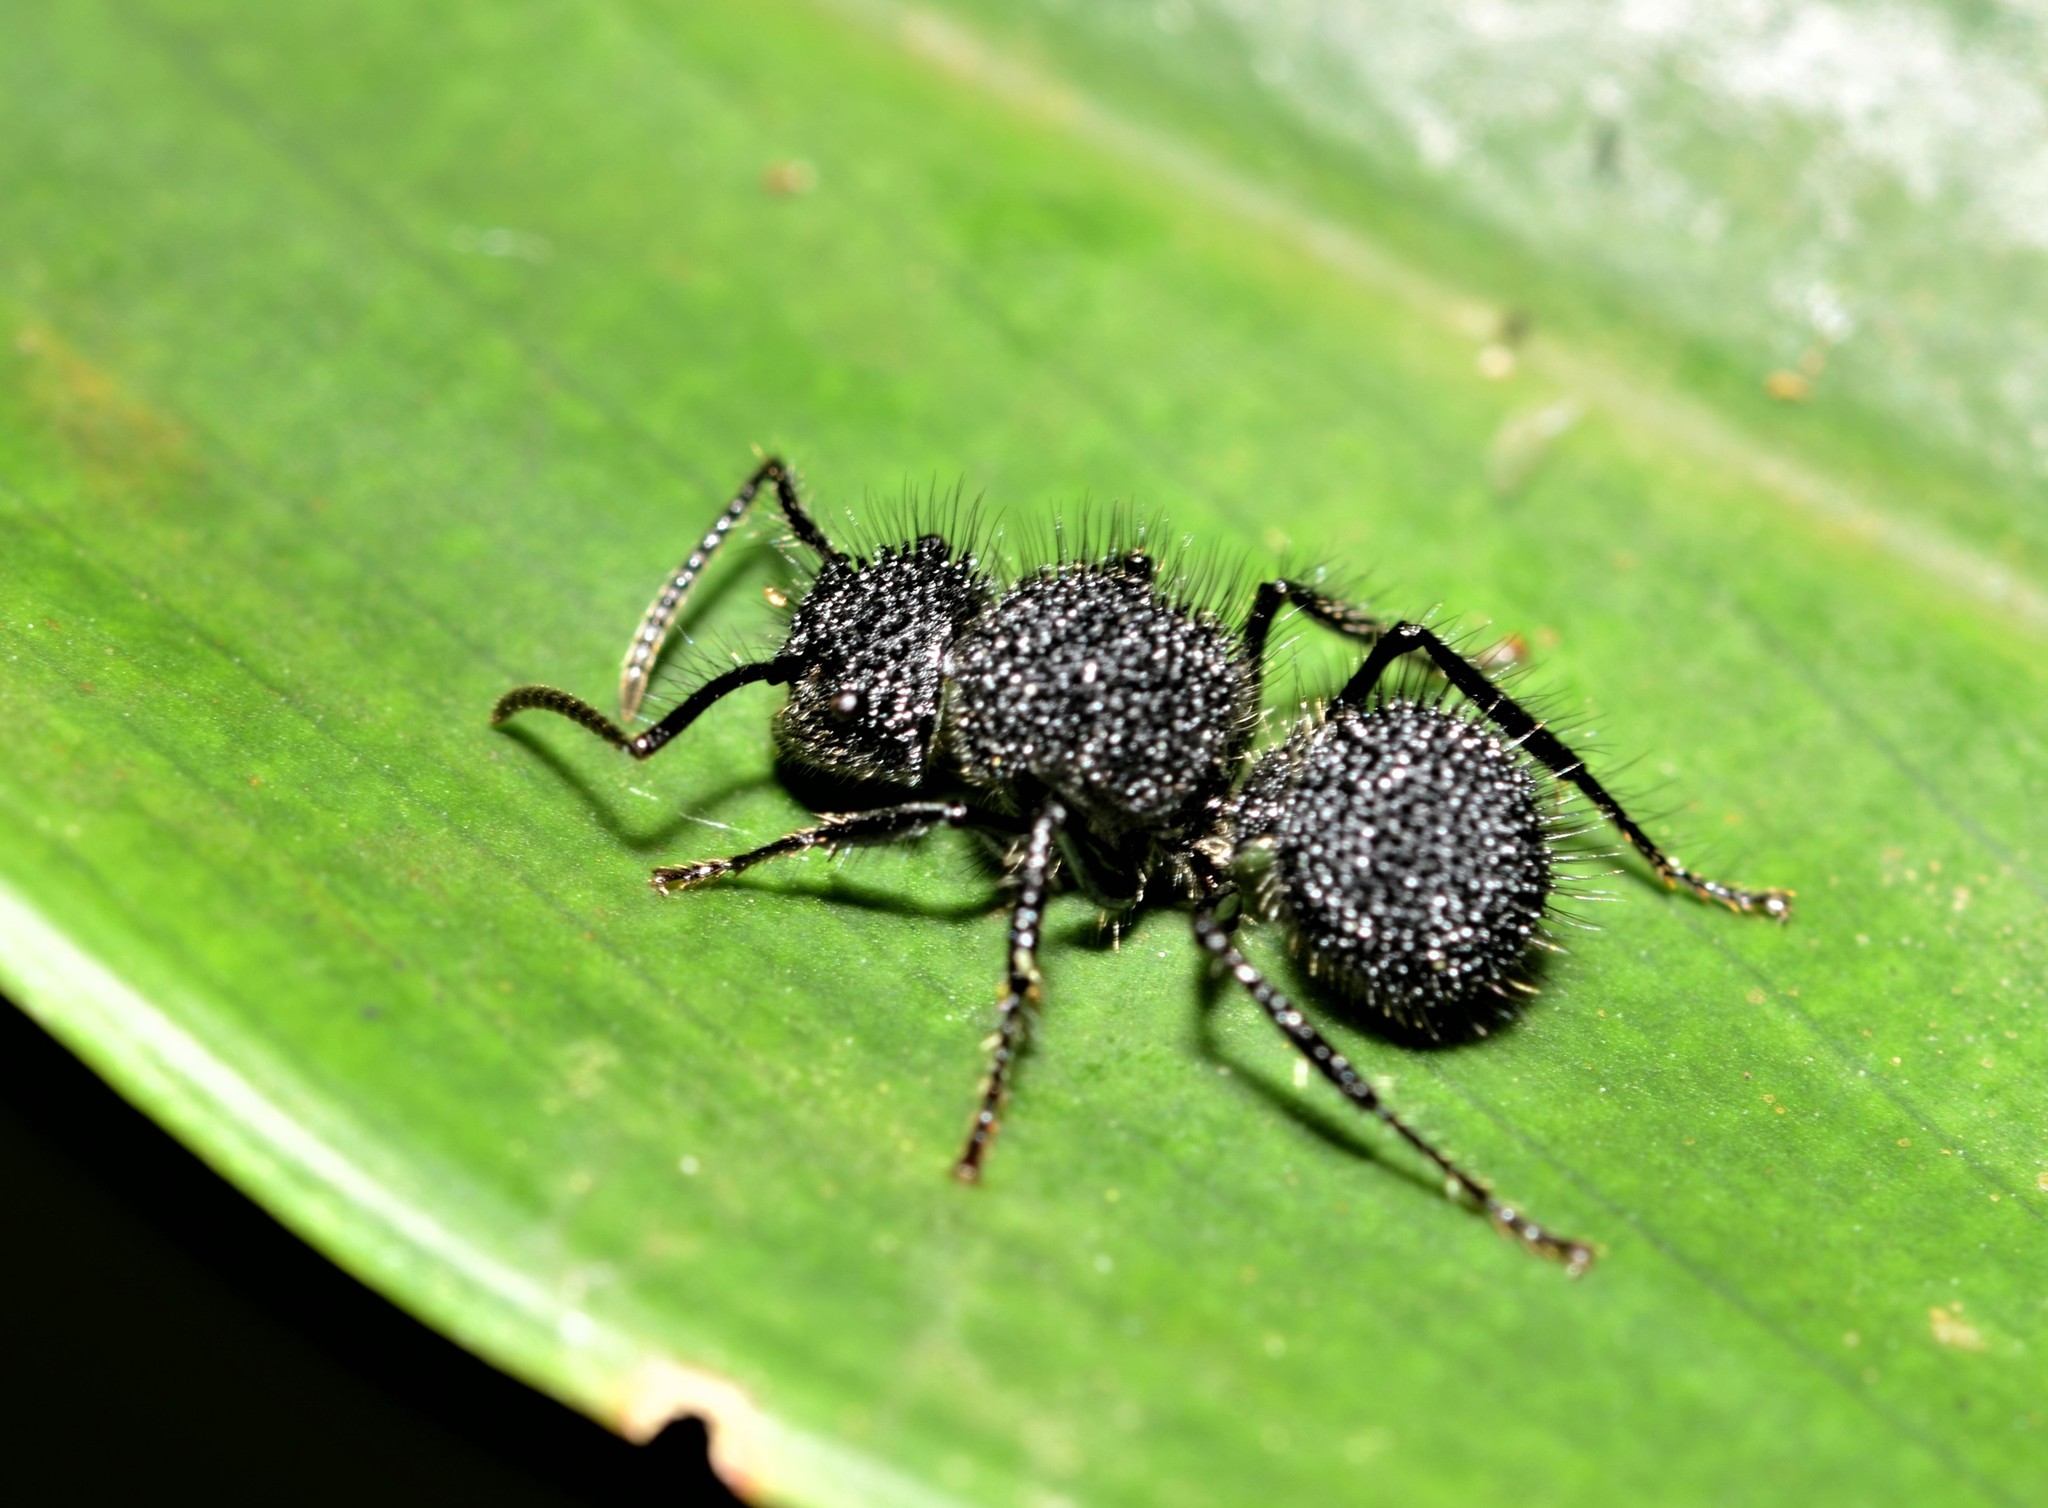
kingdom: Animalia
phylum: Arthropoda
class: Insecta
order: Hymenoptera
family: Formicidae
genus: Echinopla
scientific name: Echinopla melanarctos
